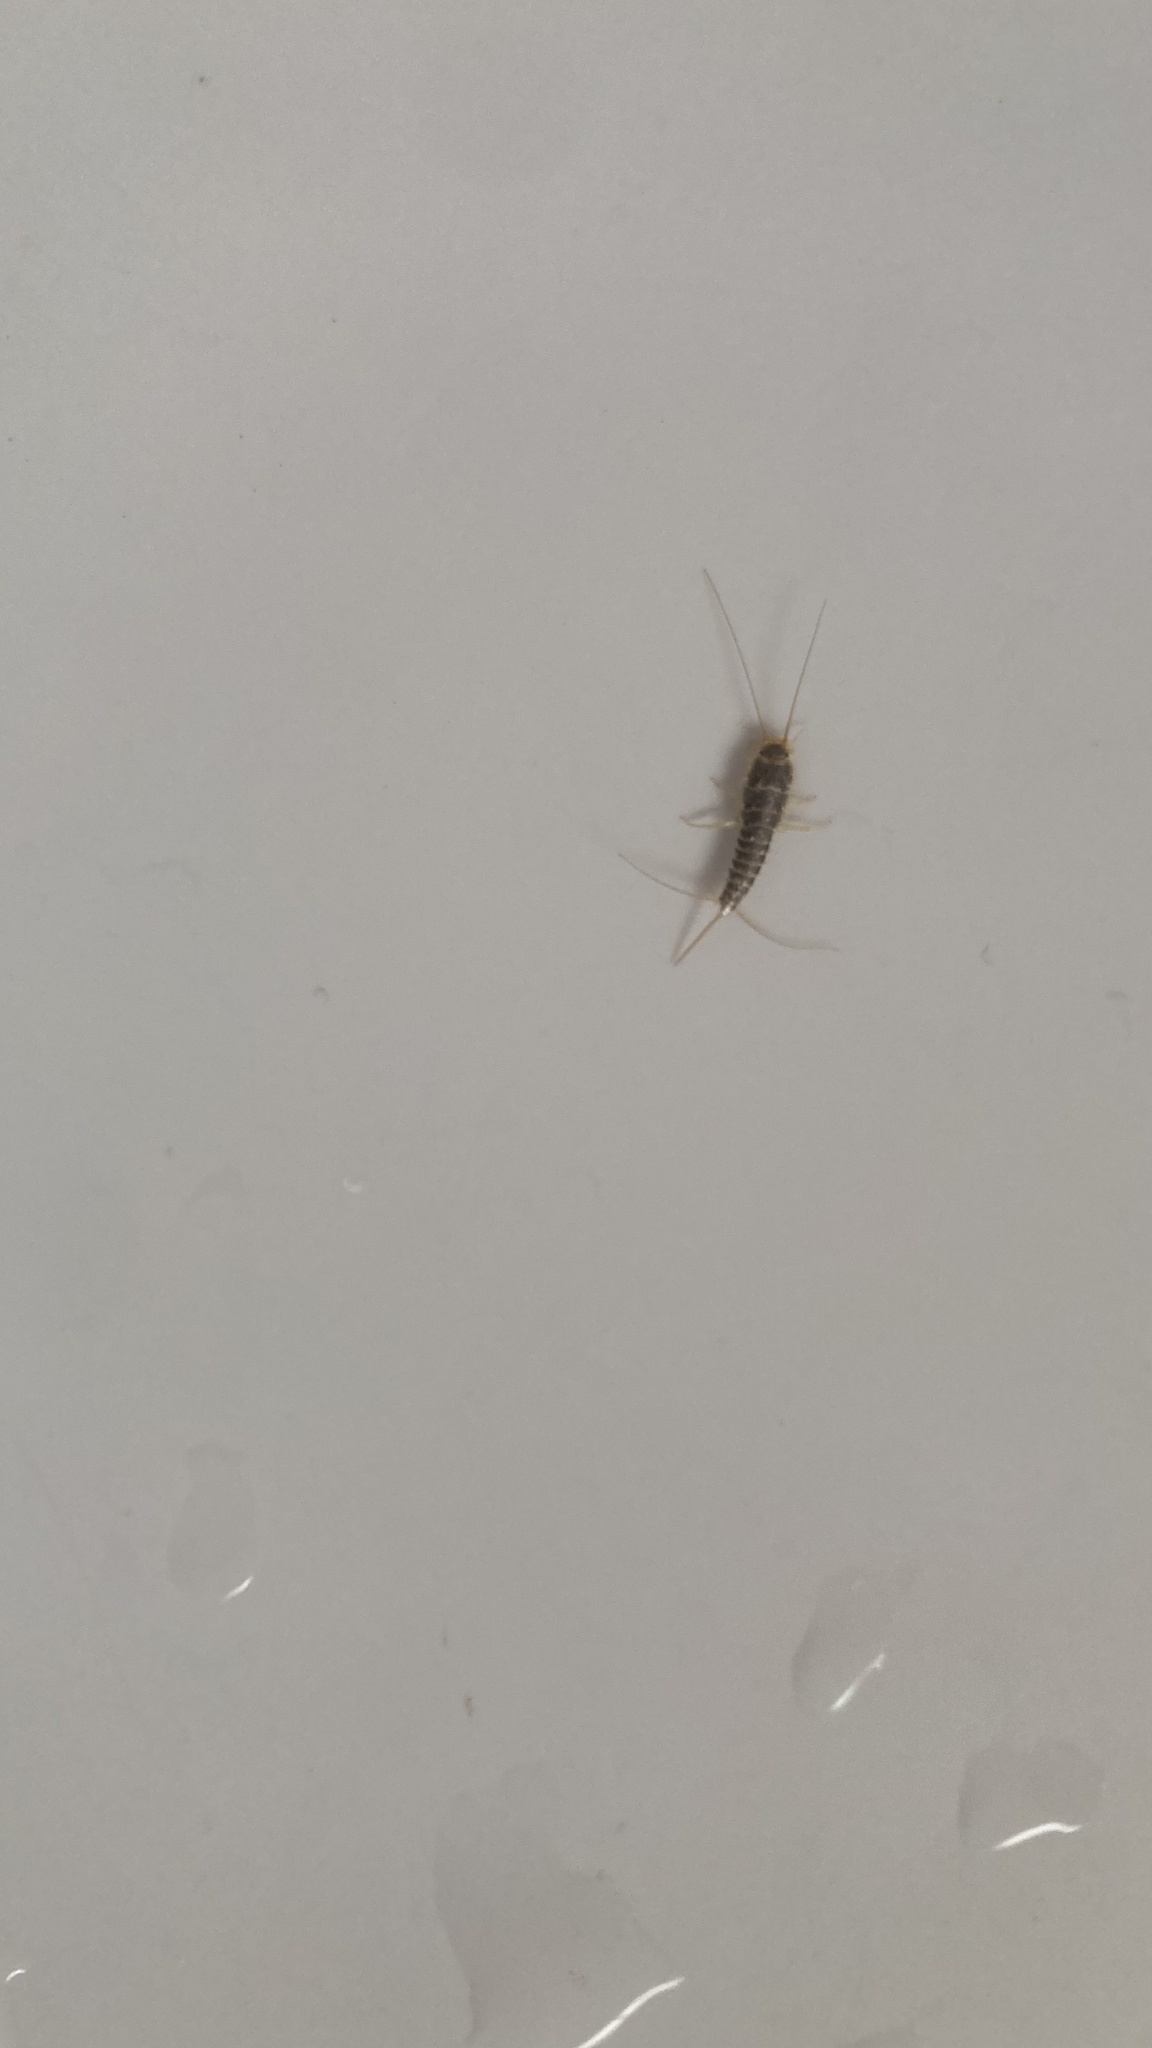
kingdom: Animalia
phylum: Arthropoda
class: Insecta
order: Zygentoma
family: Lepismatidae
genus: Ctenolepisma
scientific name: Ctenolepisma longicaudatum
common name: Silverfish
